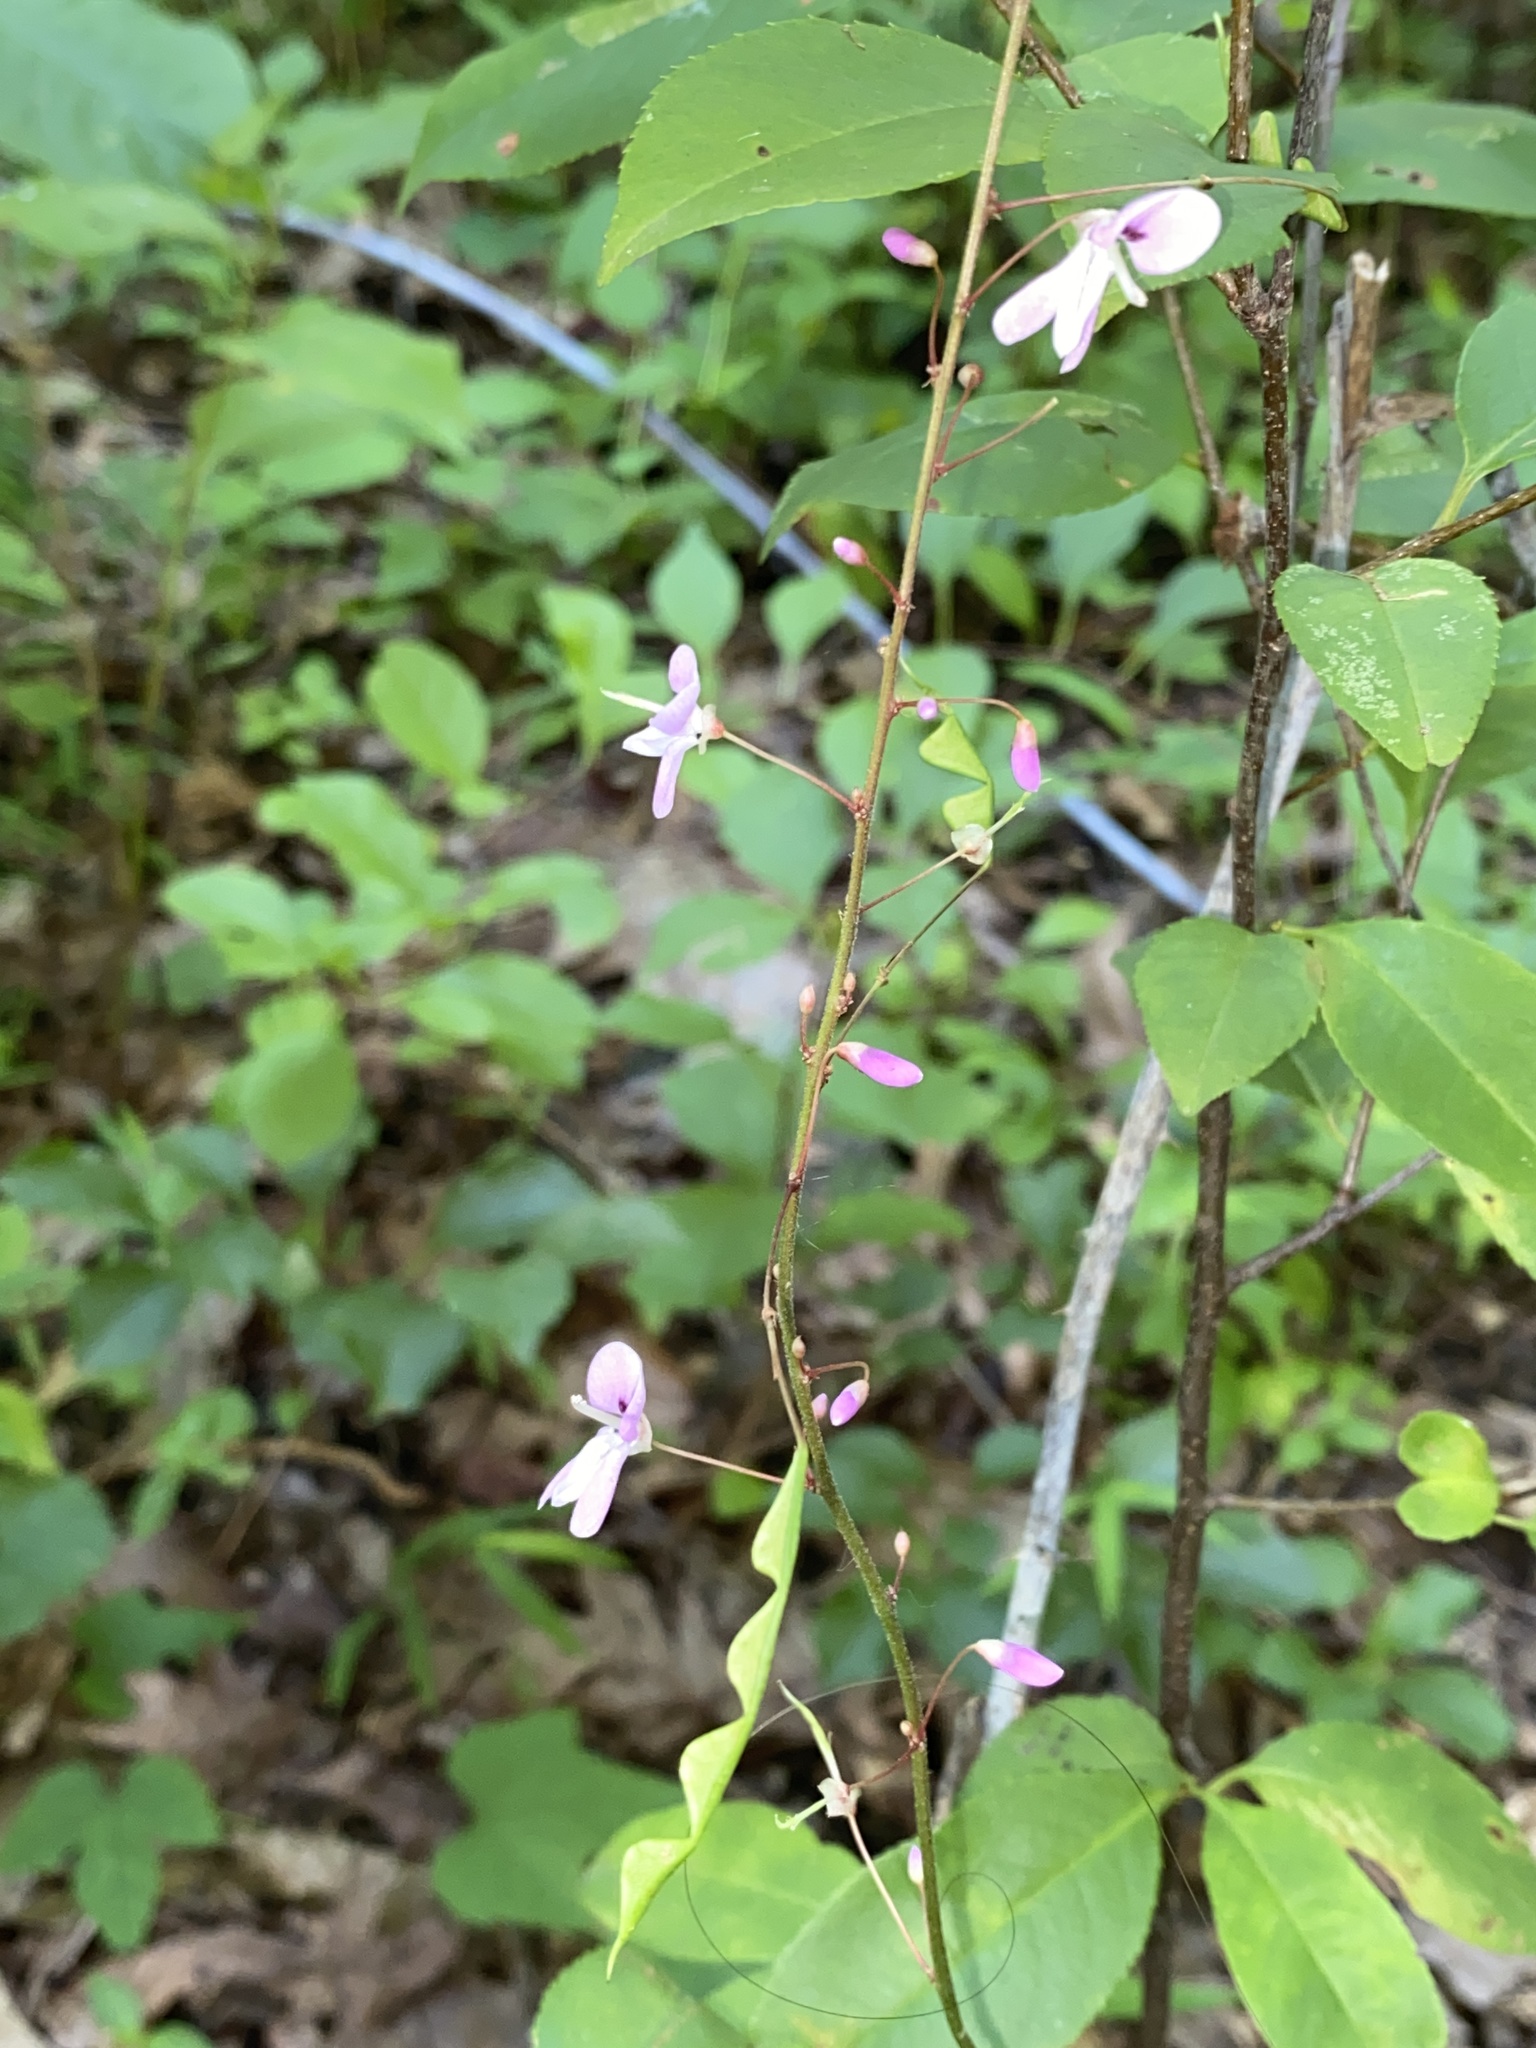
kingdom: Plantae
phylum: Tracheophyta
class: Magnoliopsida
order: Fabales
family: Fabaceae
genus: Hylodesmum
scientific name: Hylodesmum nudiflorum
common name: Bare-stemmed tick-trefoil
